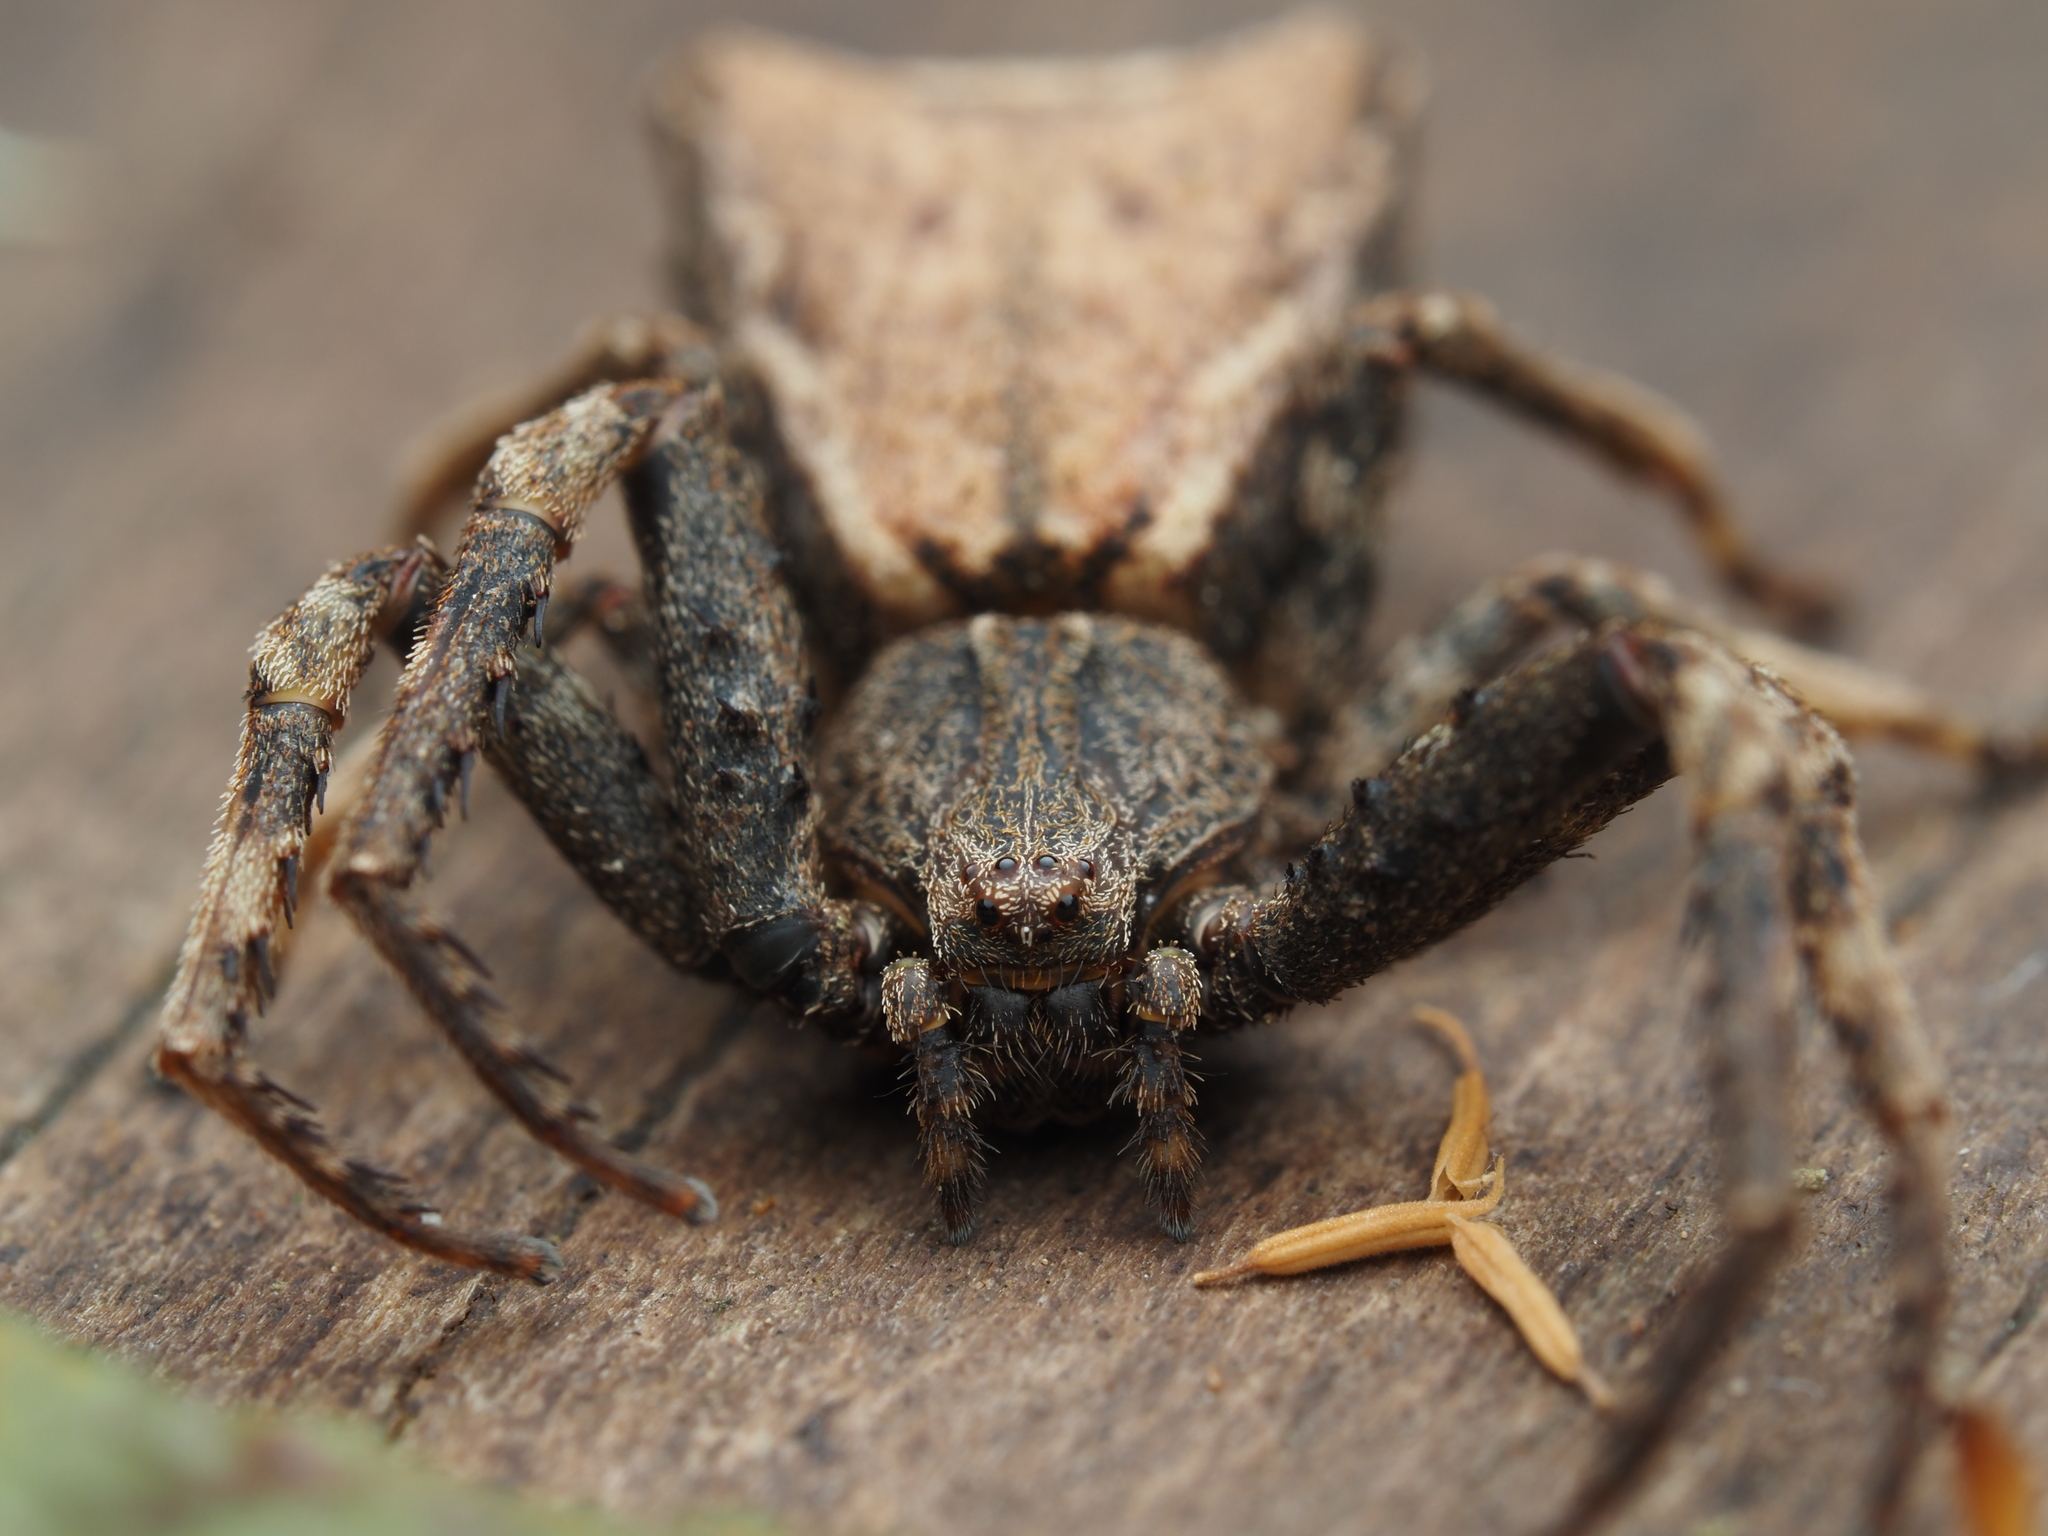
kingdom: Animalia
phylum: Arthropoda
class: Arachnida
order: Araneae
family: Thomisidae
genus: Sidymella
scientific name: Sidymella angularis
